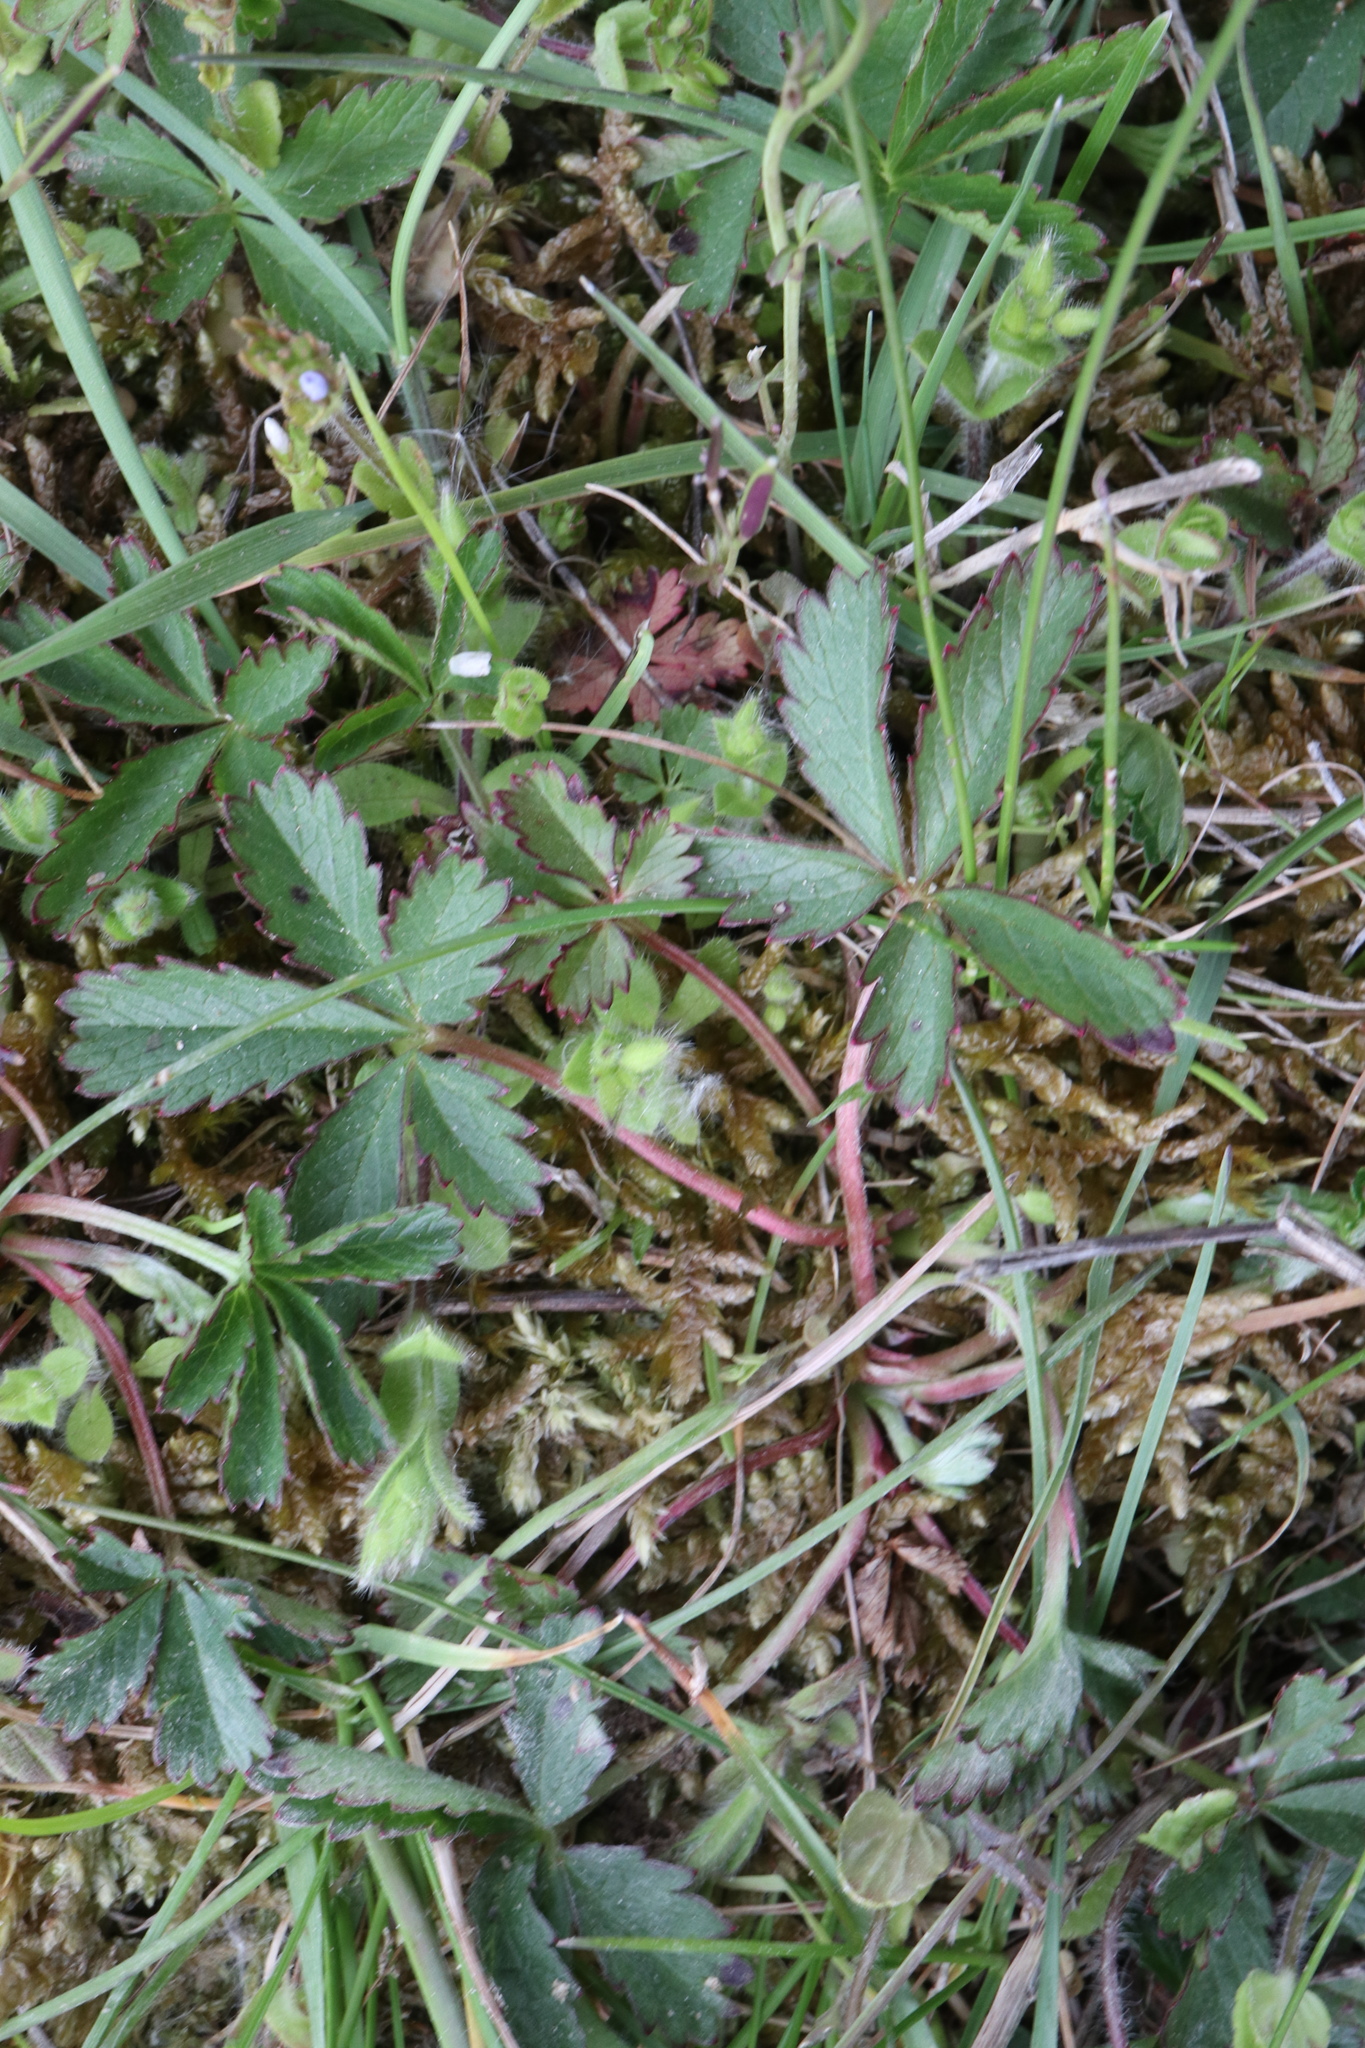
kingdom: Plantae
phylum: Tracheophyta
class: Magnoliopsida
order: Rosales
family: Rosaceae
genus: Potentilla
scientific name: Potentilla reptans
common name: Creeping cinquefoil
